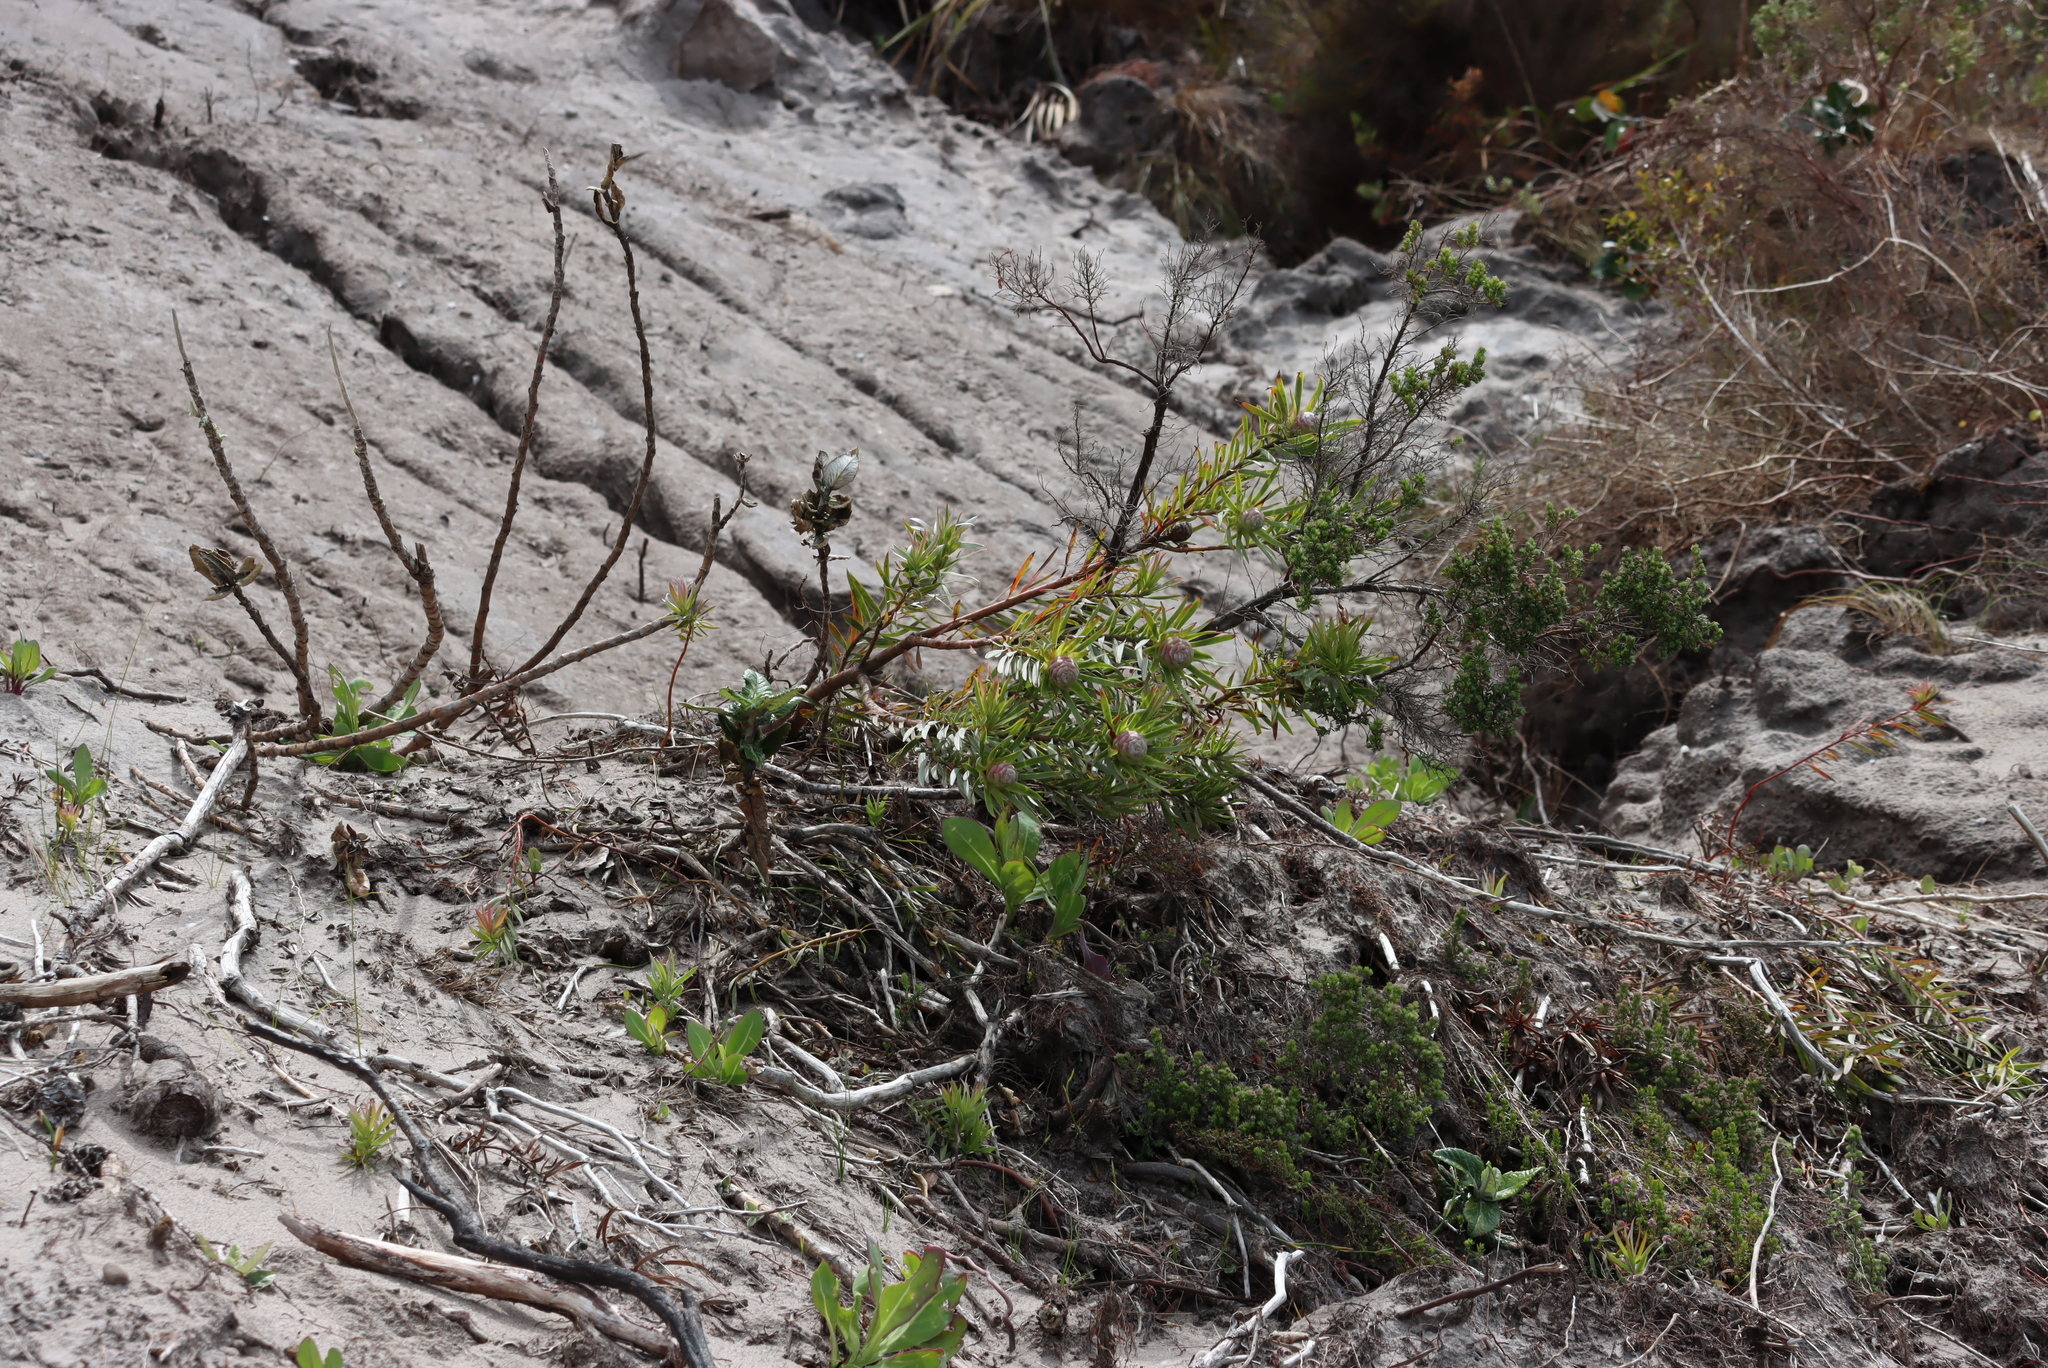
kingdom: Plantae
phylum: Tracheophyta
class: Magnoliopsida
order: Proteales
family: Proteaceae
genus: Leucadendron
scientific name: Leucadendron xanthoconus
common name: Sickle-leaf conebush
